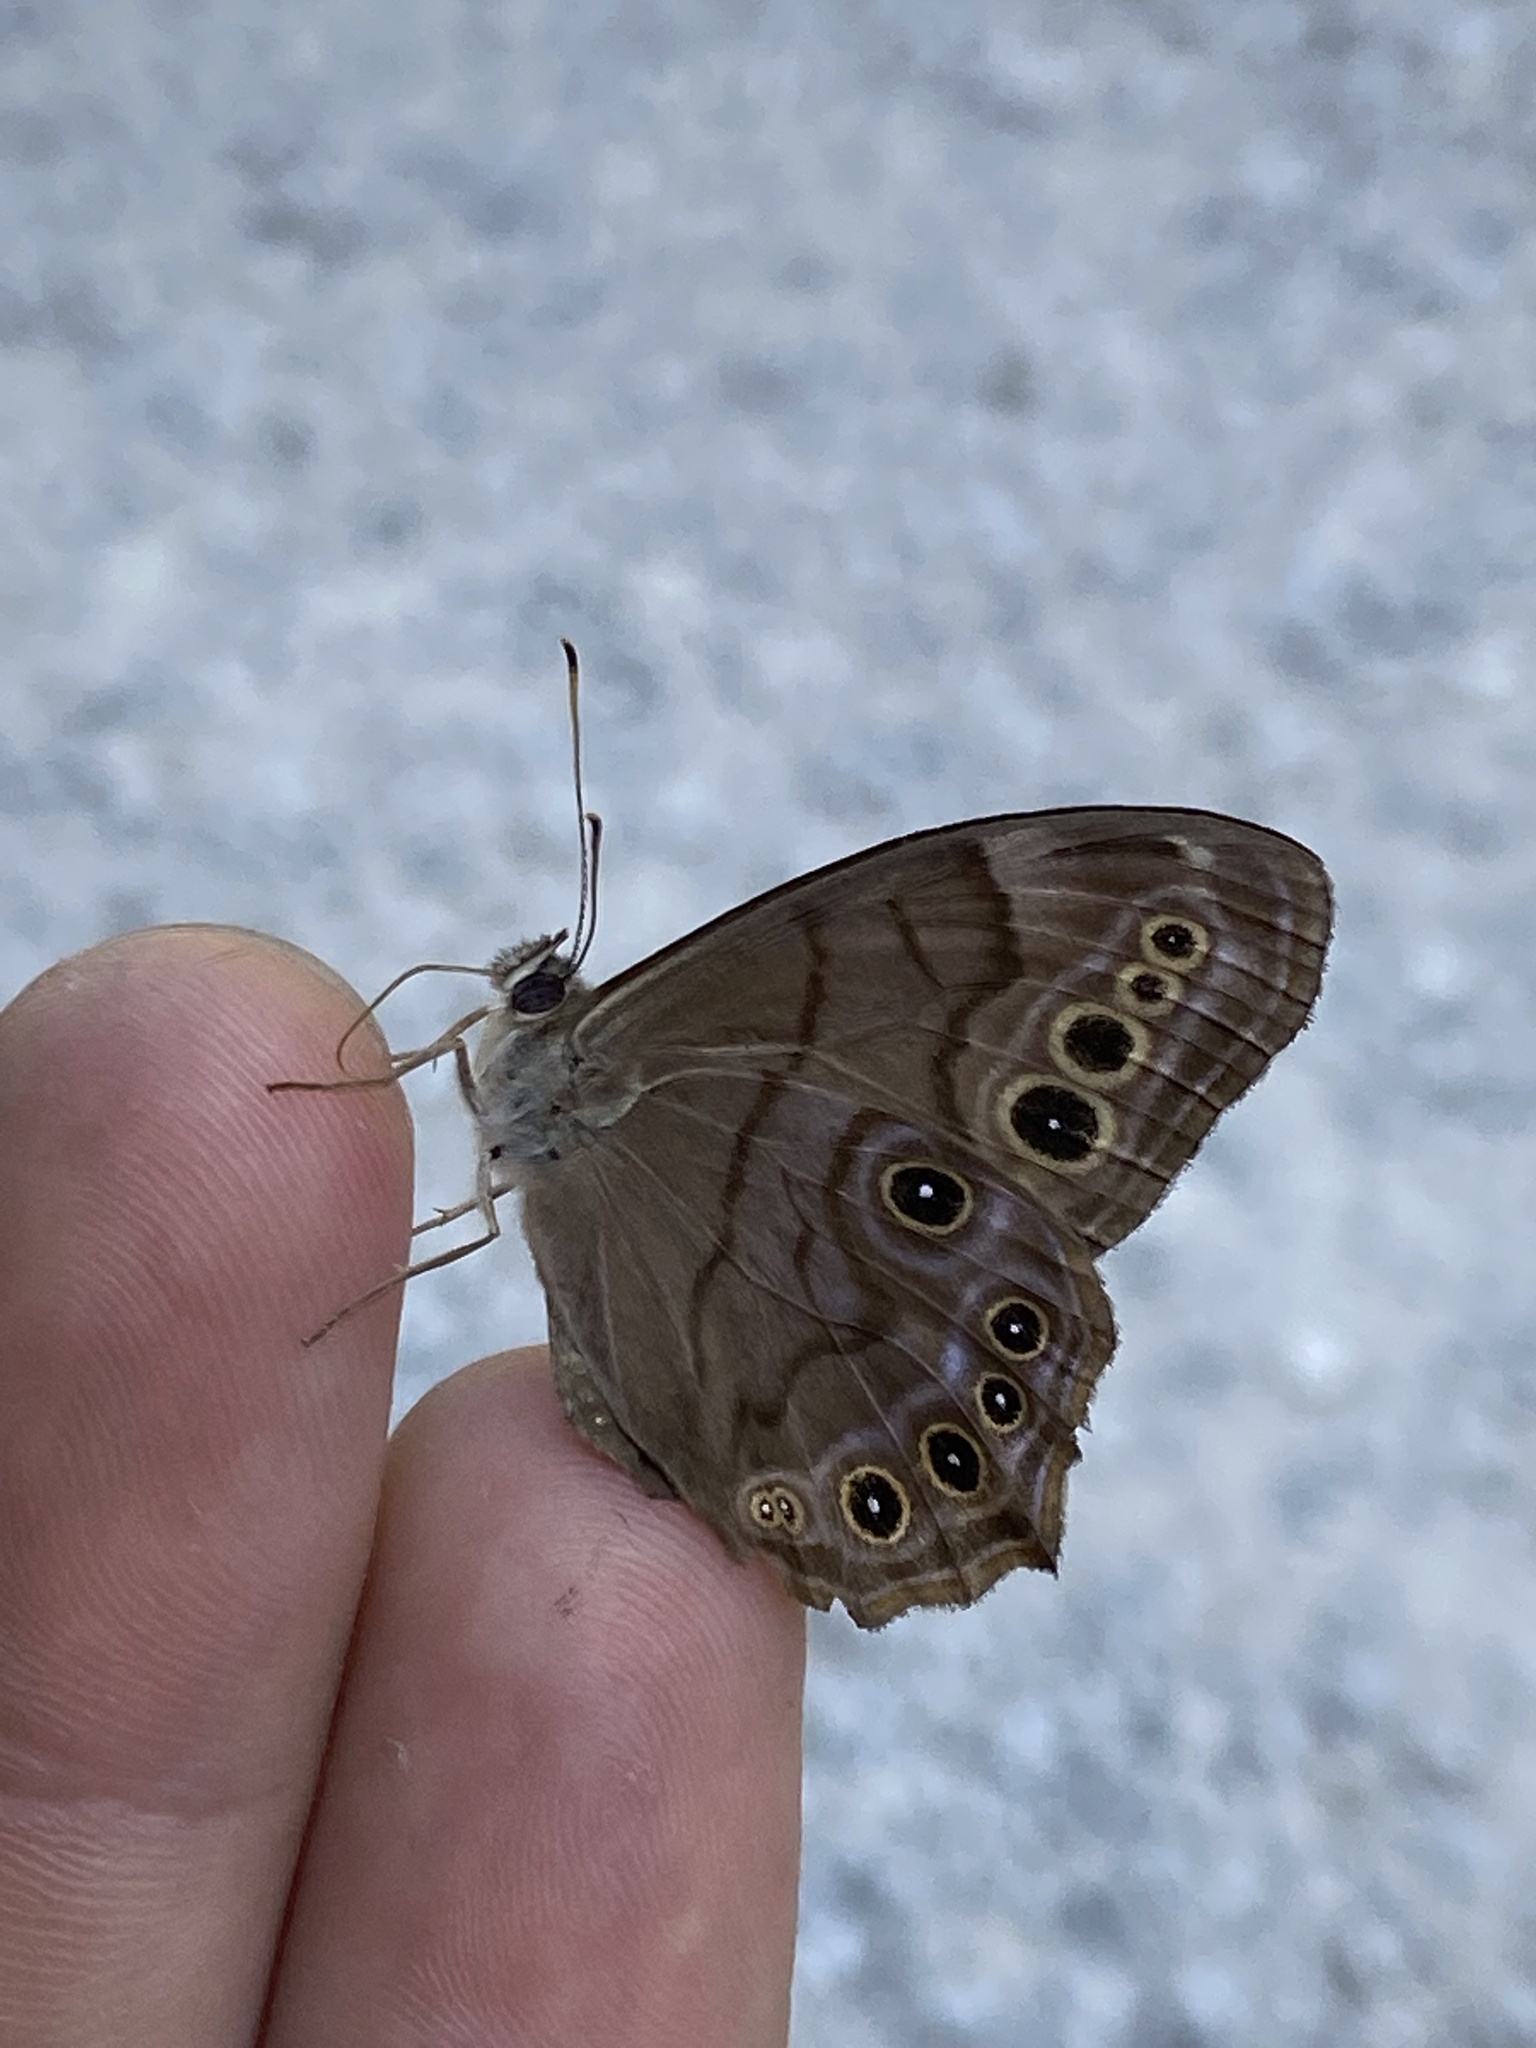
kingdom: Animalia
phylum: Arthropoda
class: Insecta
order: Lepidoptera
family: Nymphalidae
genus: Lethe
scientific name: Lethe anthedon
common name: Northern pearly-eye
